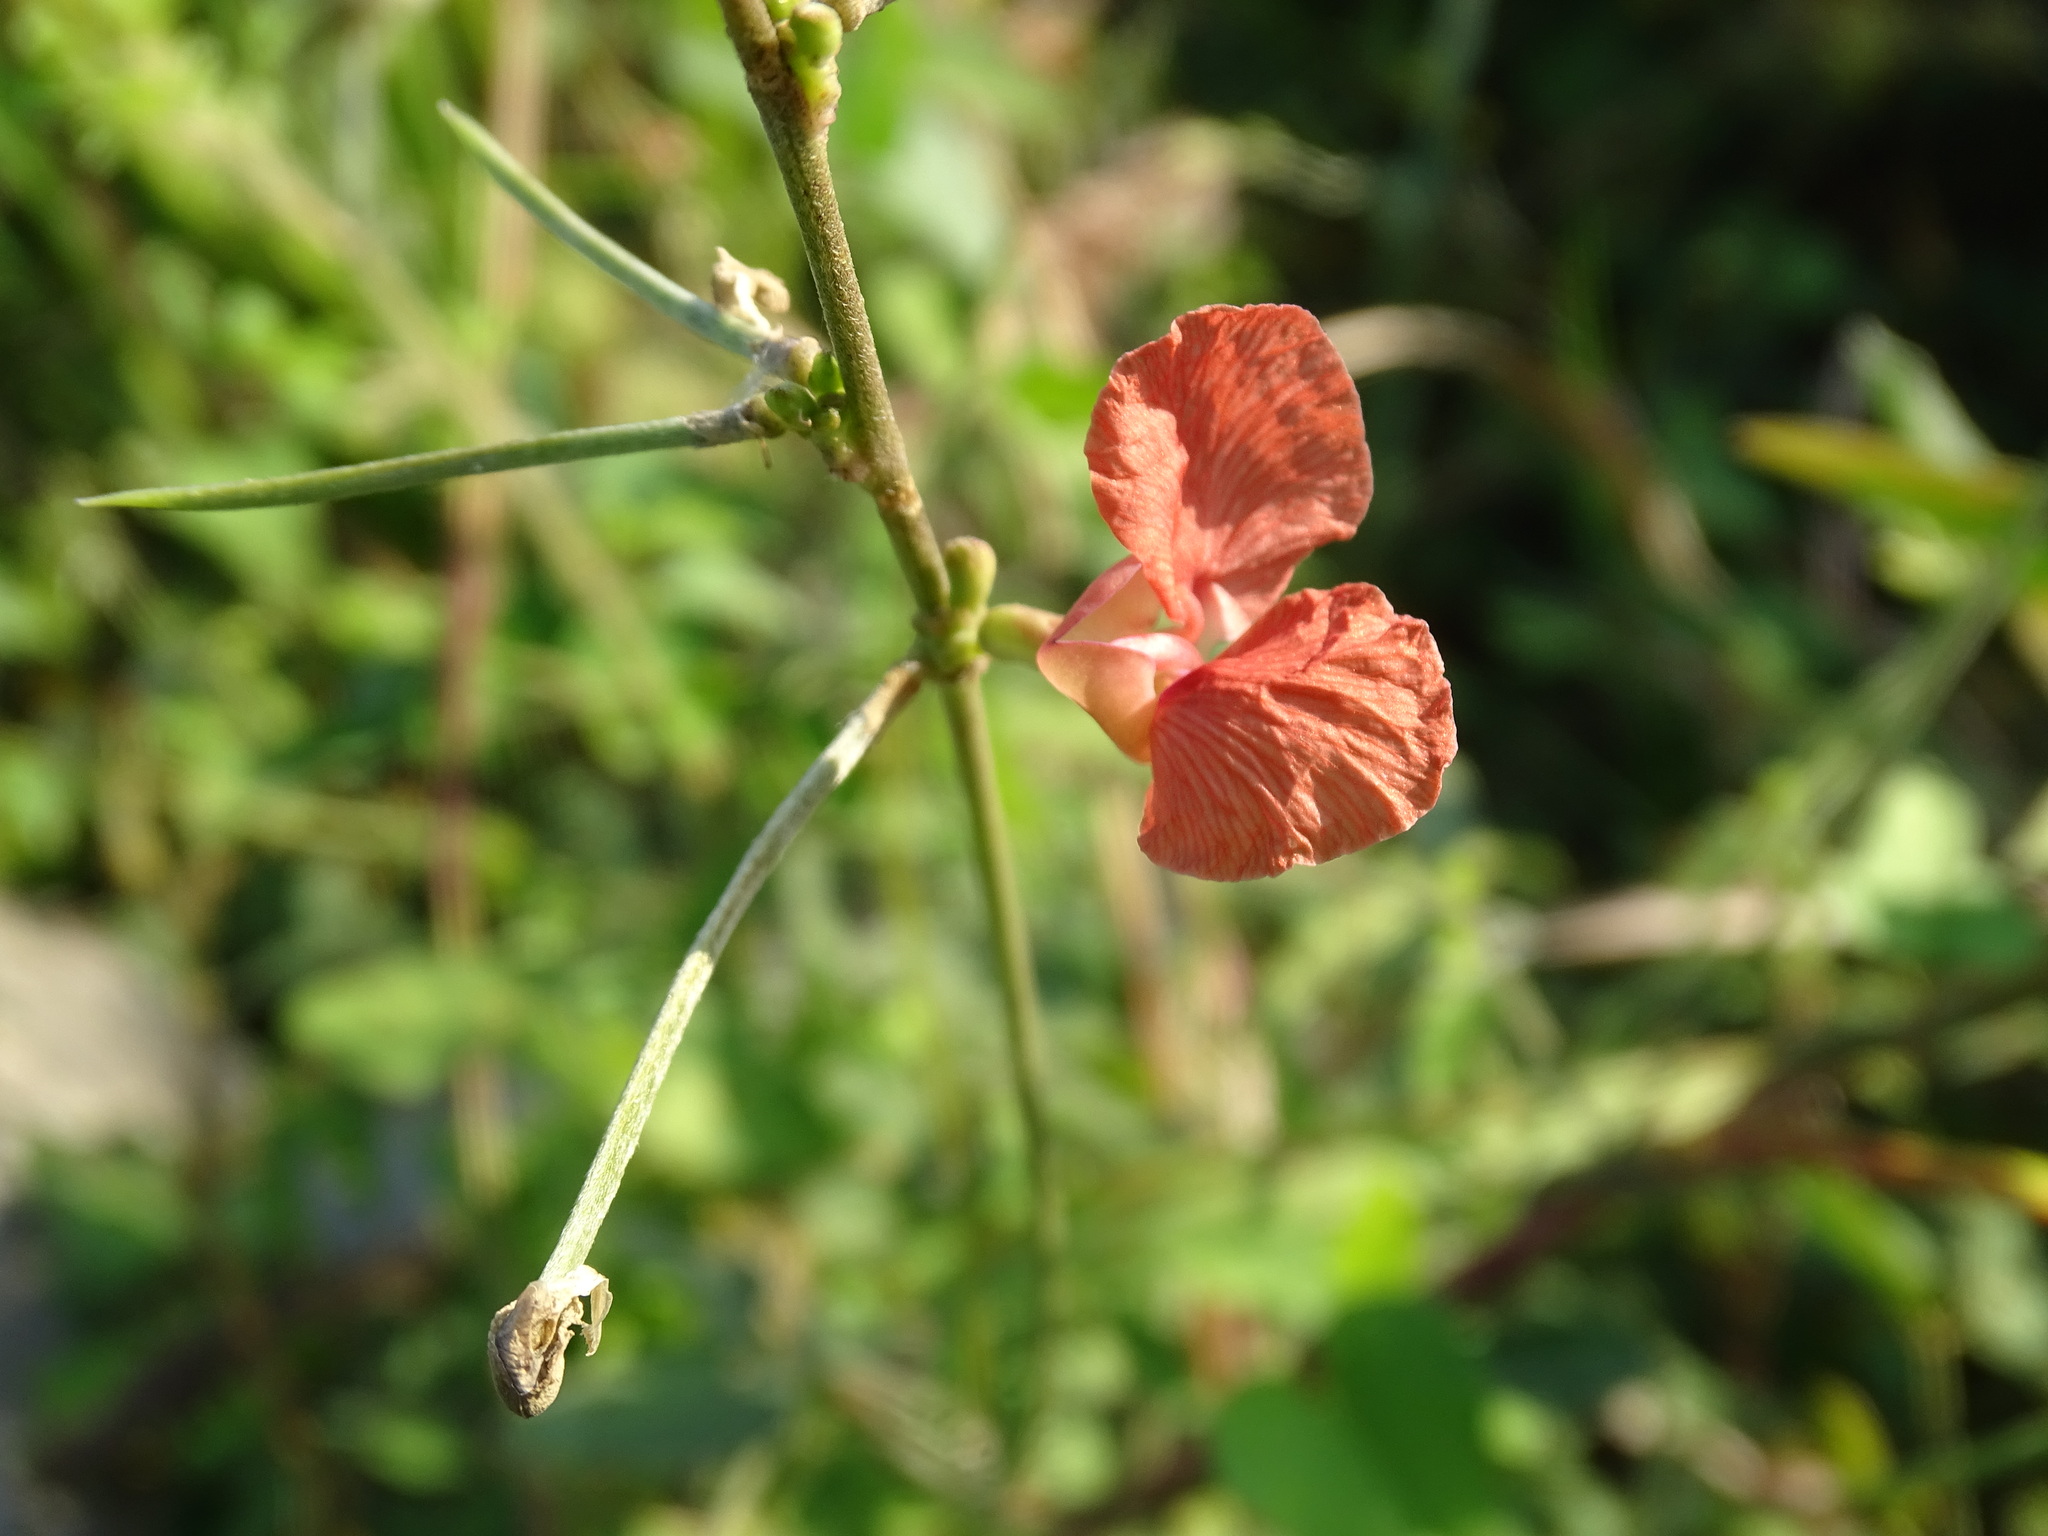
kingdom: Plantae
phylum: Tracheophyta
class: Magnoliopsida
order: Fabales
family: Fabaceae
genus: Macroptilium
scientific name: Macroptilium lathyroides
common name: Wild bushbean
